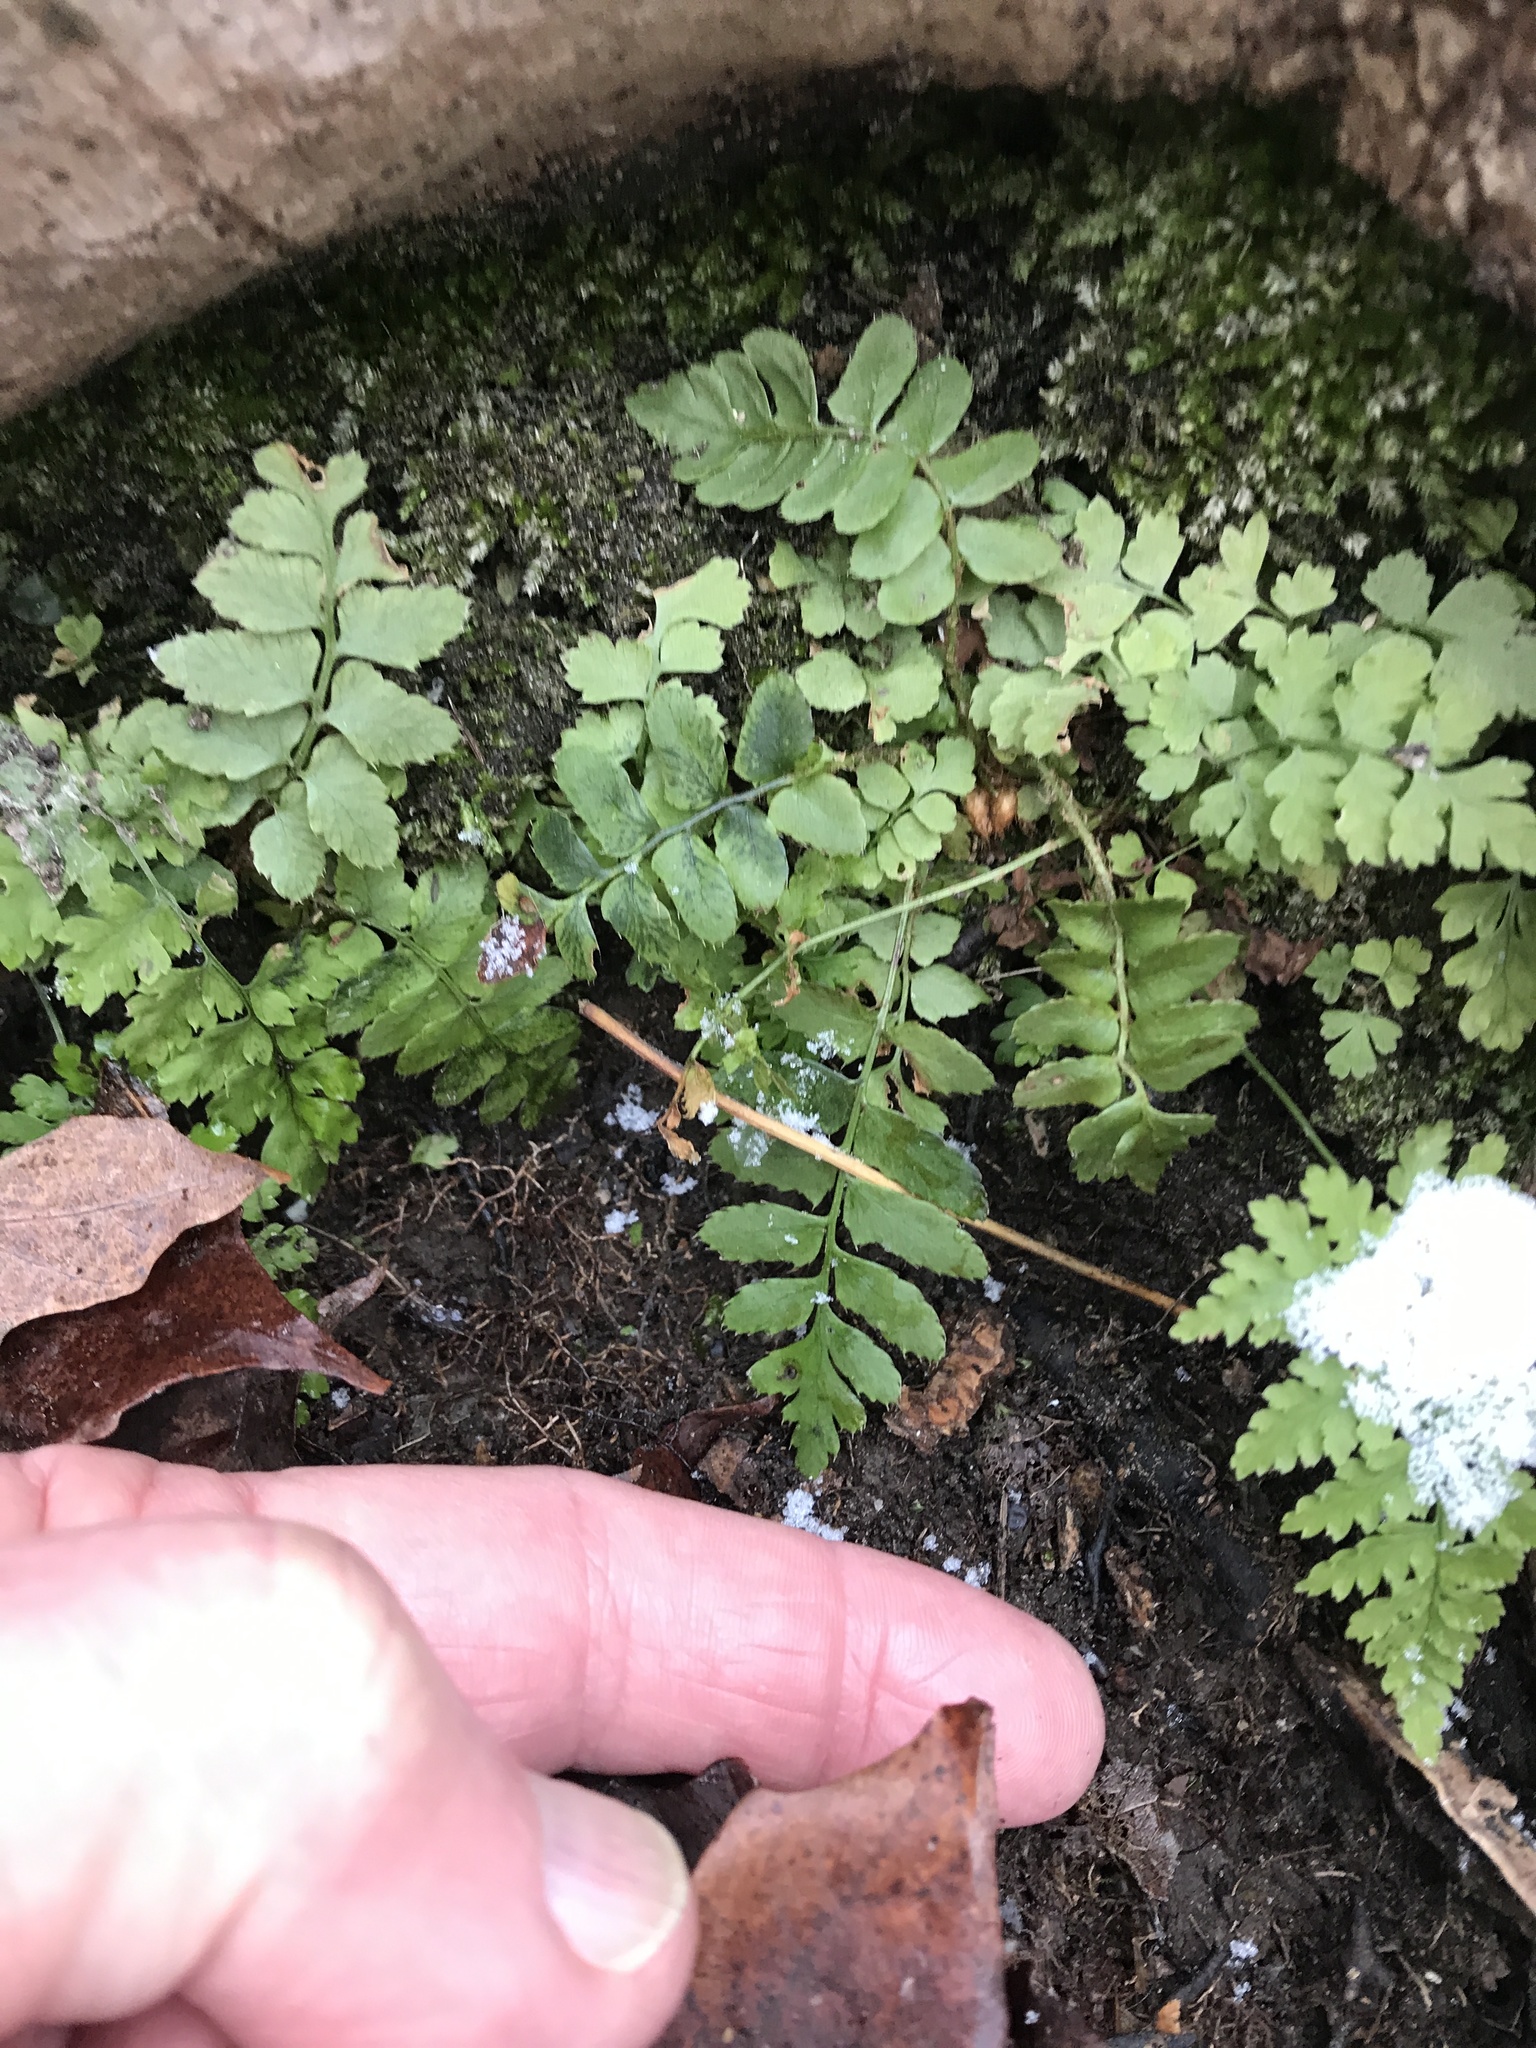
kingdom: Plantae
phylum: Tracheophyta
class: Polypodiopsida
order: Polypodiales
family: Dryopteridaceae
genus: Polystichum
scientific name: Polystichum acrostichoides
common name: Christmas fern
